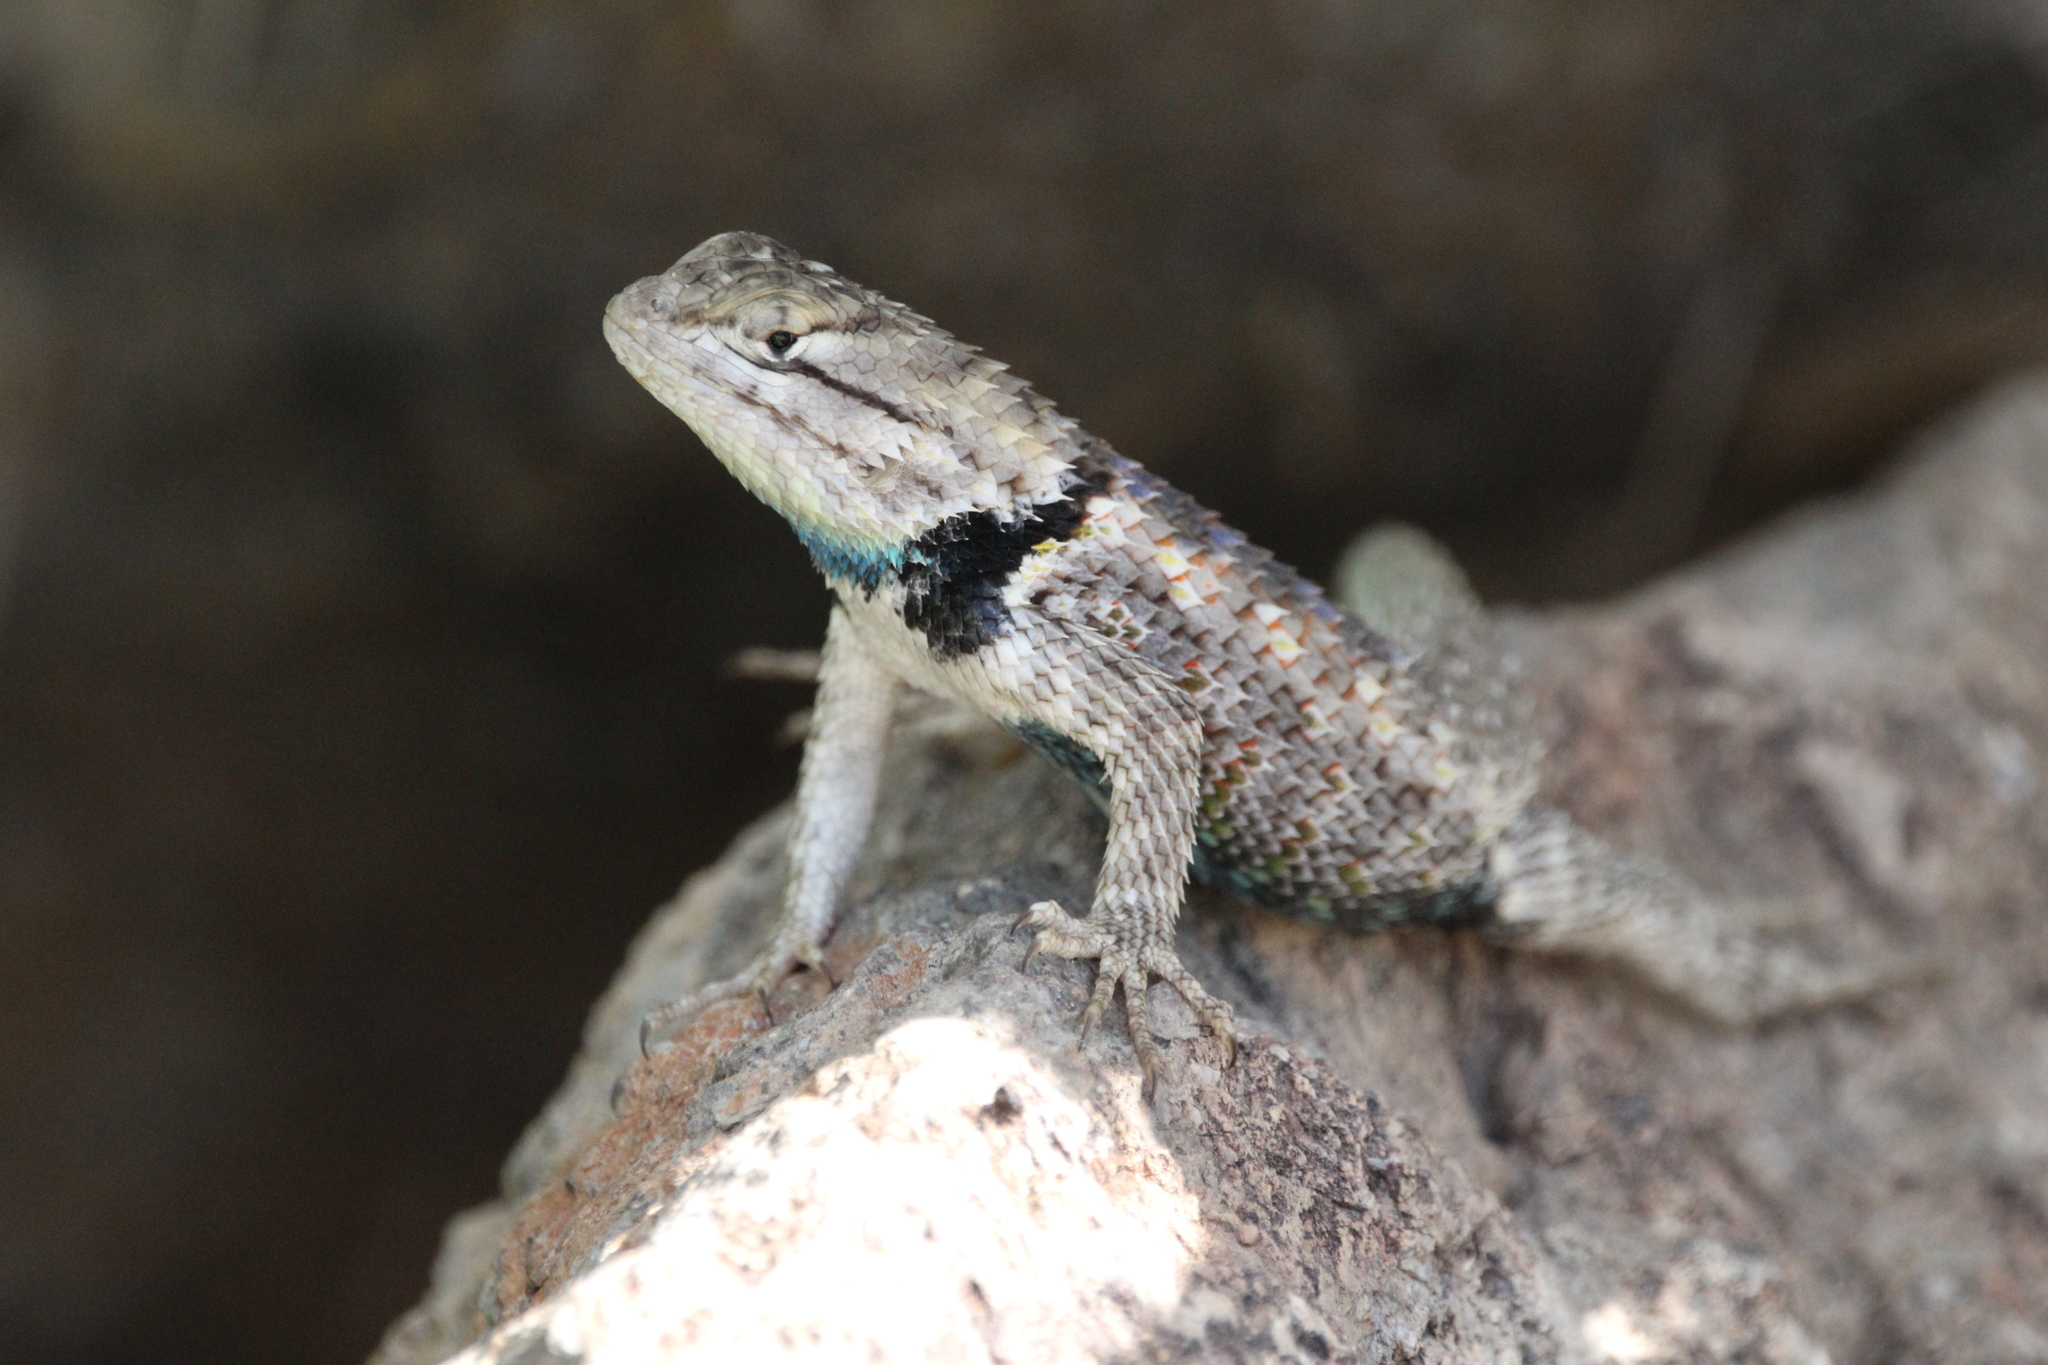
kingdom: Animalia
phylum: Chordata
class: Squamata
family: Phrynosomatidae
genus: Sceloporus
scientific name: Sceloporus magister
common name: Desert spiny lizard
